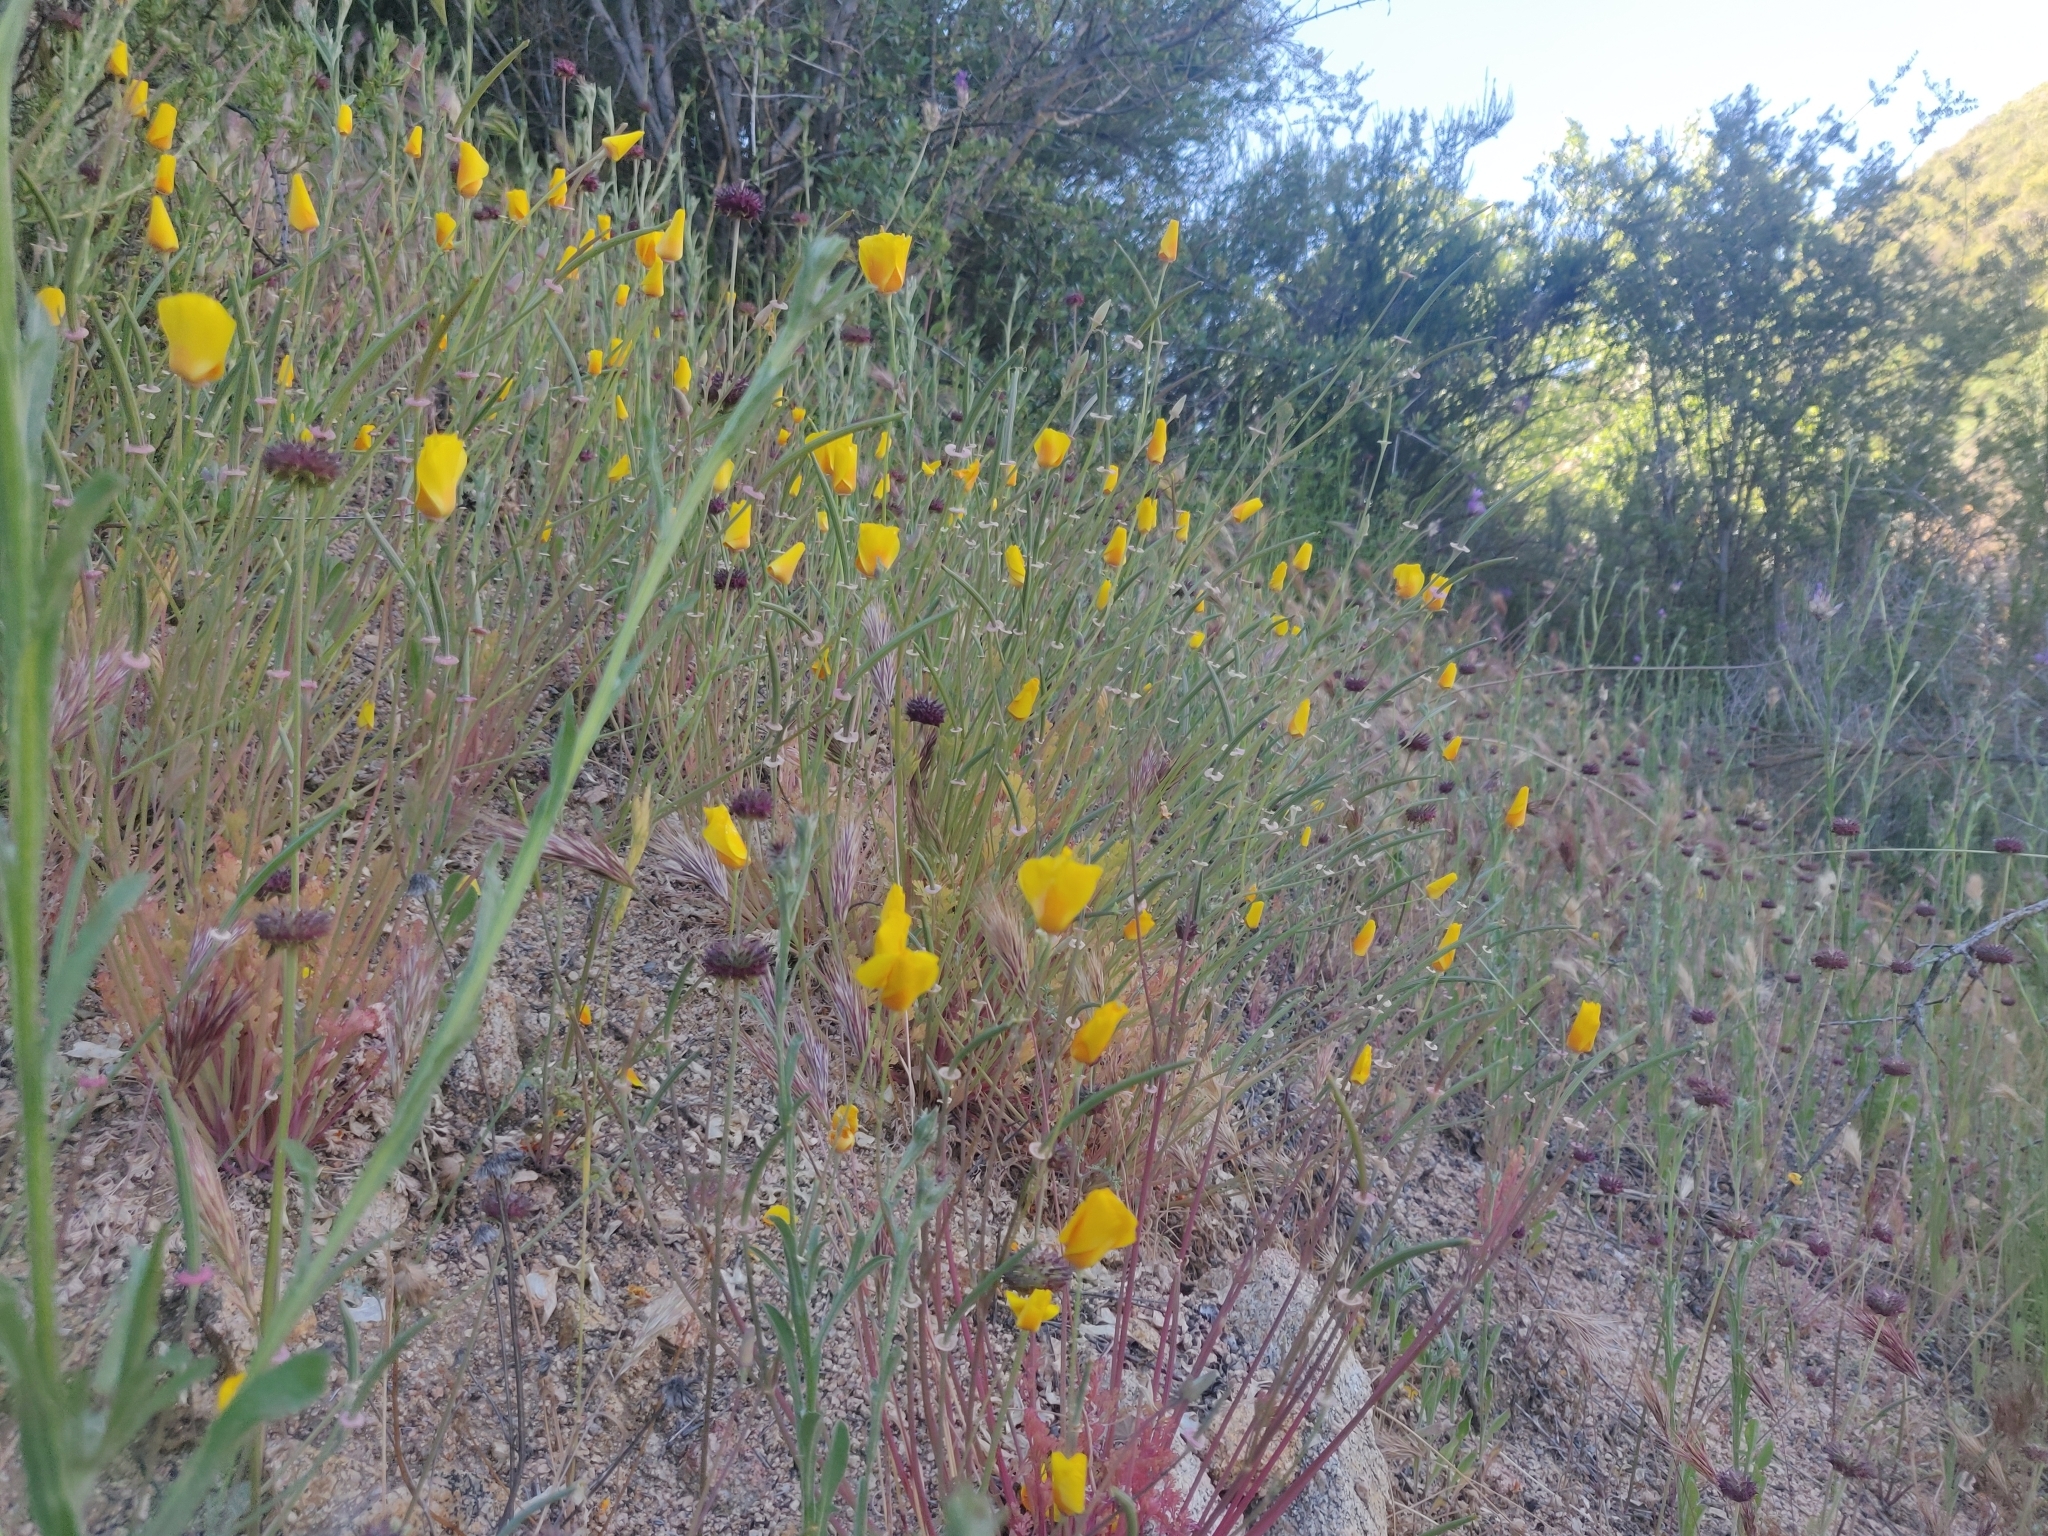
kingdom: Plantae
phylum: Tracheophyta
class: Magnoliopsida
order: Ranunculales
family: Papaveraceae
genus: Eschscholzia
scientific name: Eschscholzia californica
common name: California poppy
